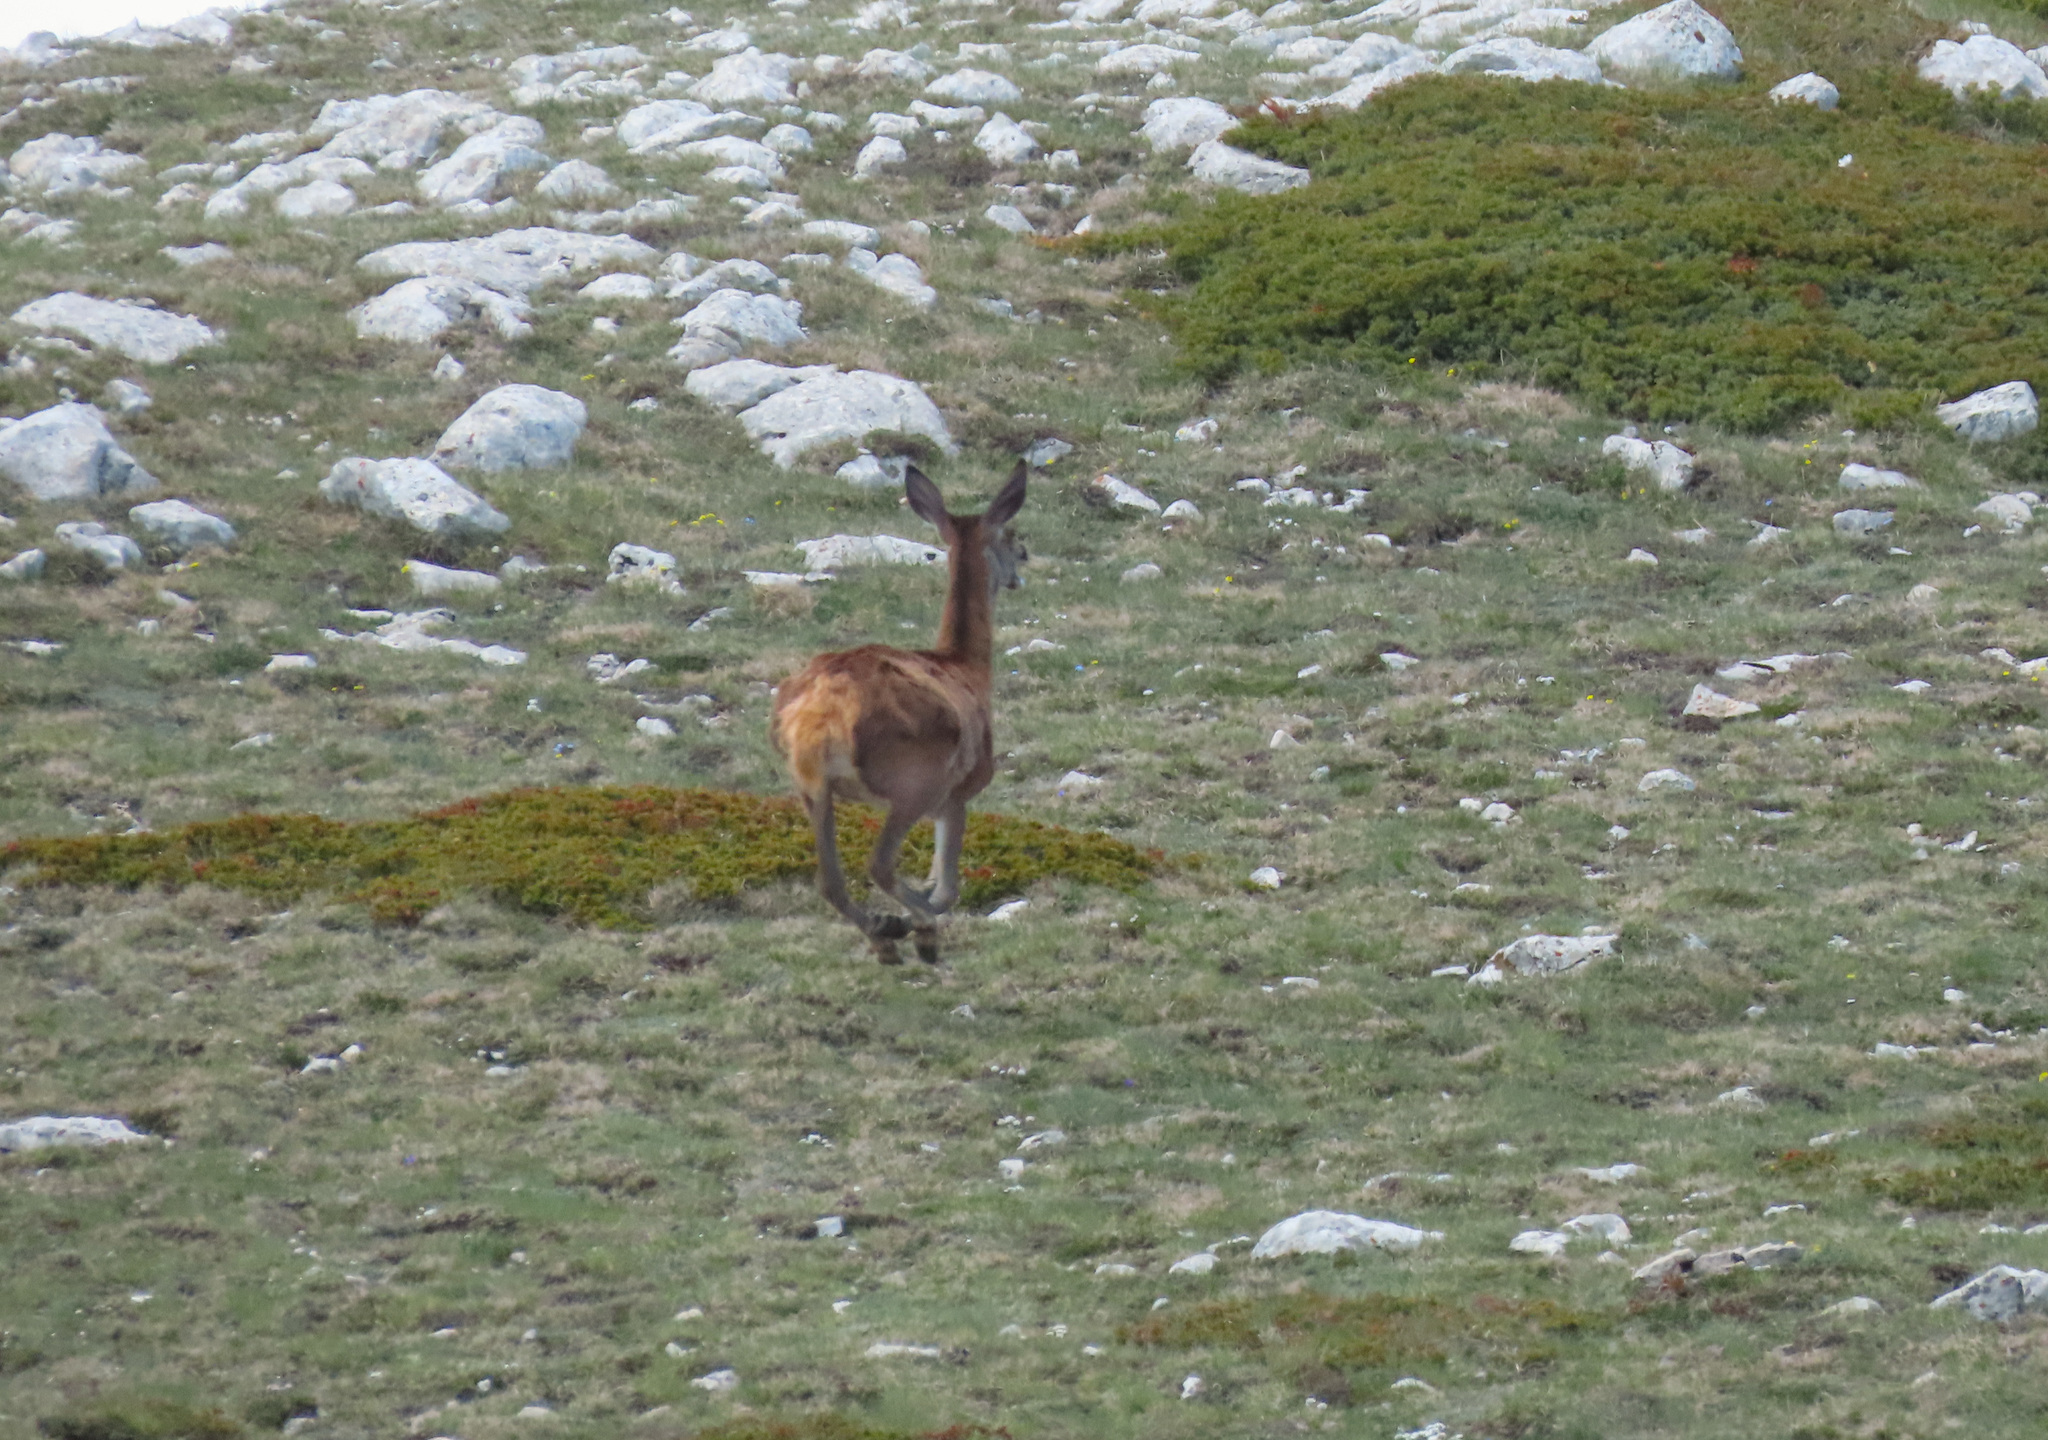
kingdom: Animalia
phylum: Chordata
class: Mammalia
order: Artiodactyla
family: Cervidae
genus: Cervus
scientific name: Cervus elaphus
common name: Red deer
